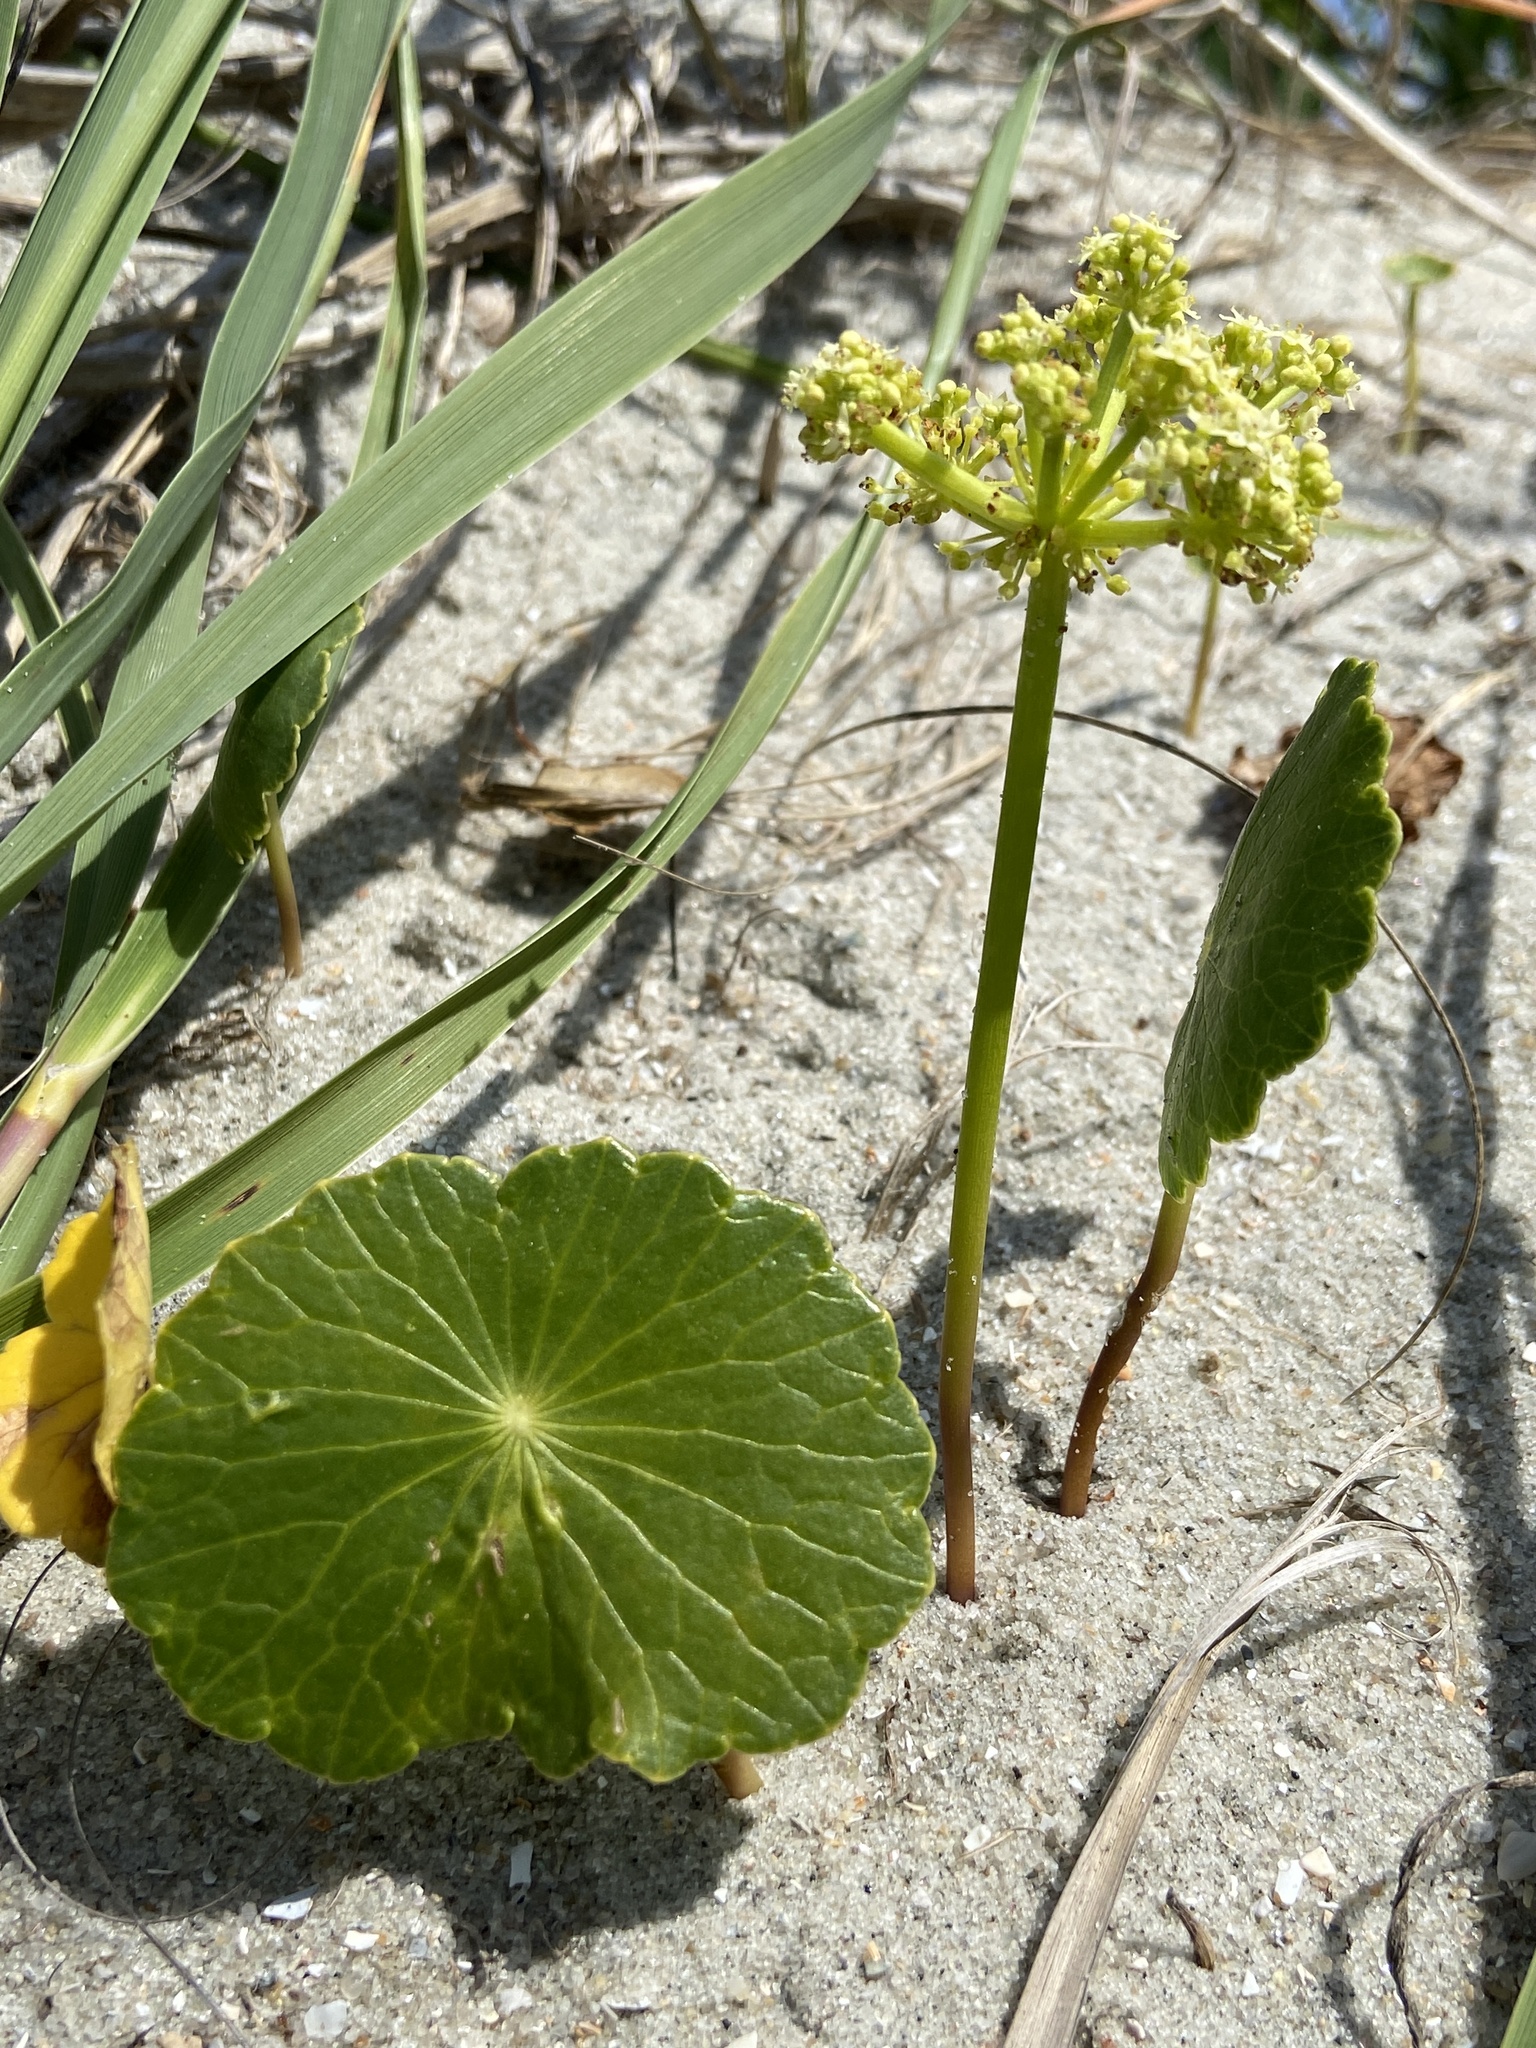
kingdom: Plantae
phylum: Tracheophyta
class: Magnoliopsida
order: Apiales
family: Araliaceae
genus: Hydrocotyle
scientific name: Hydrocotyle bonariensis
